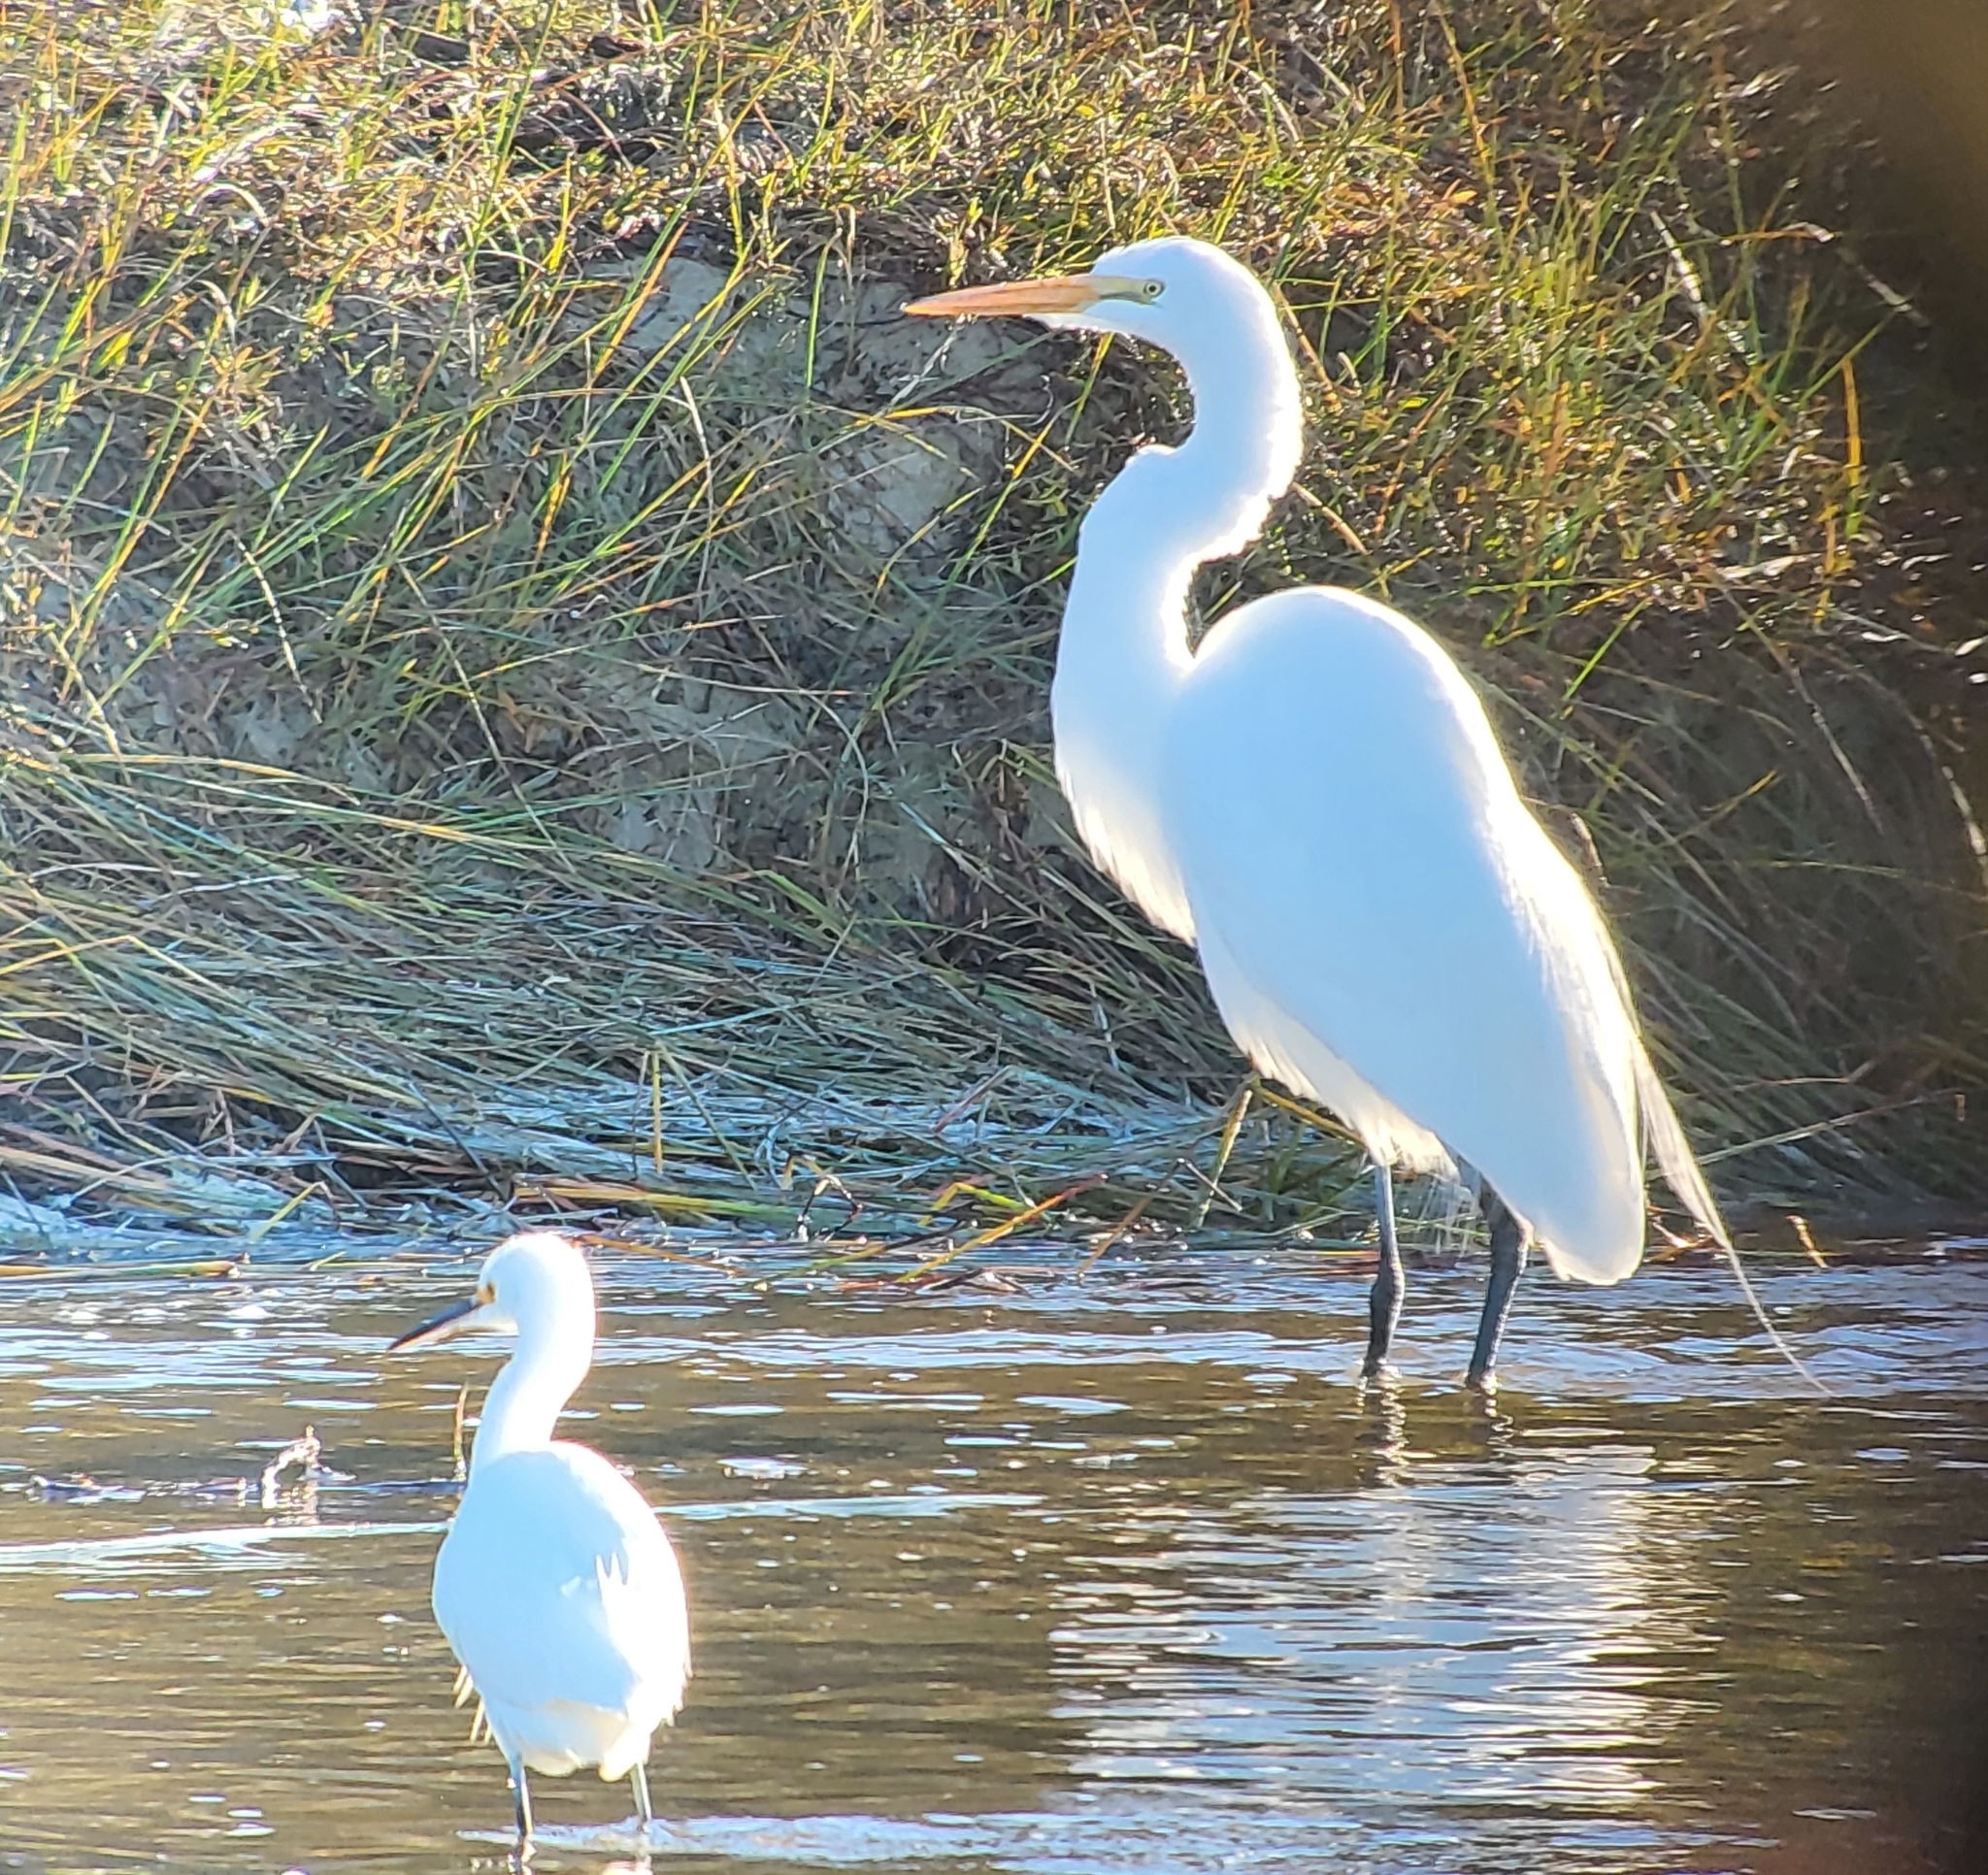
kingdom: Animalia
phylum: Chordata
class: Aves
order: Pelecaniformes
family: Ardeidae
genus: Ardea
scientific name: Ardea alba
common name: Great egret
